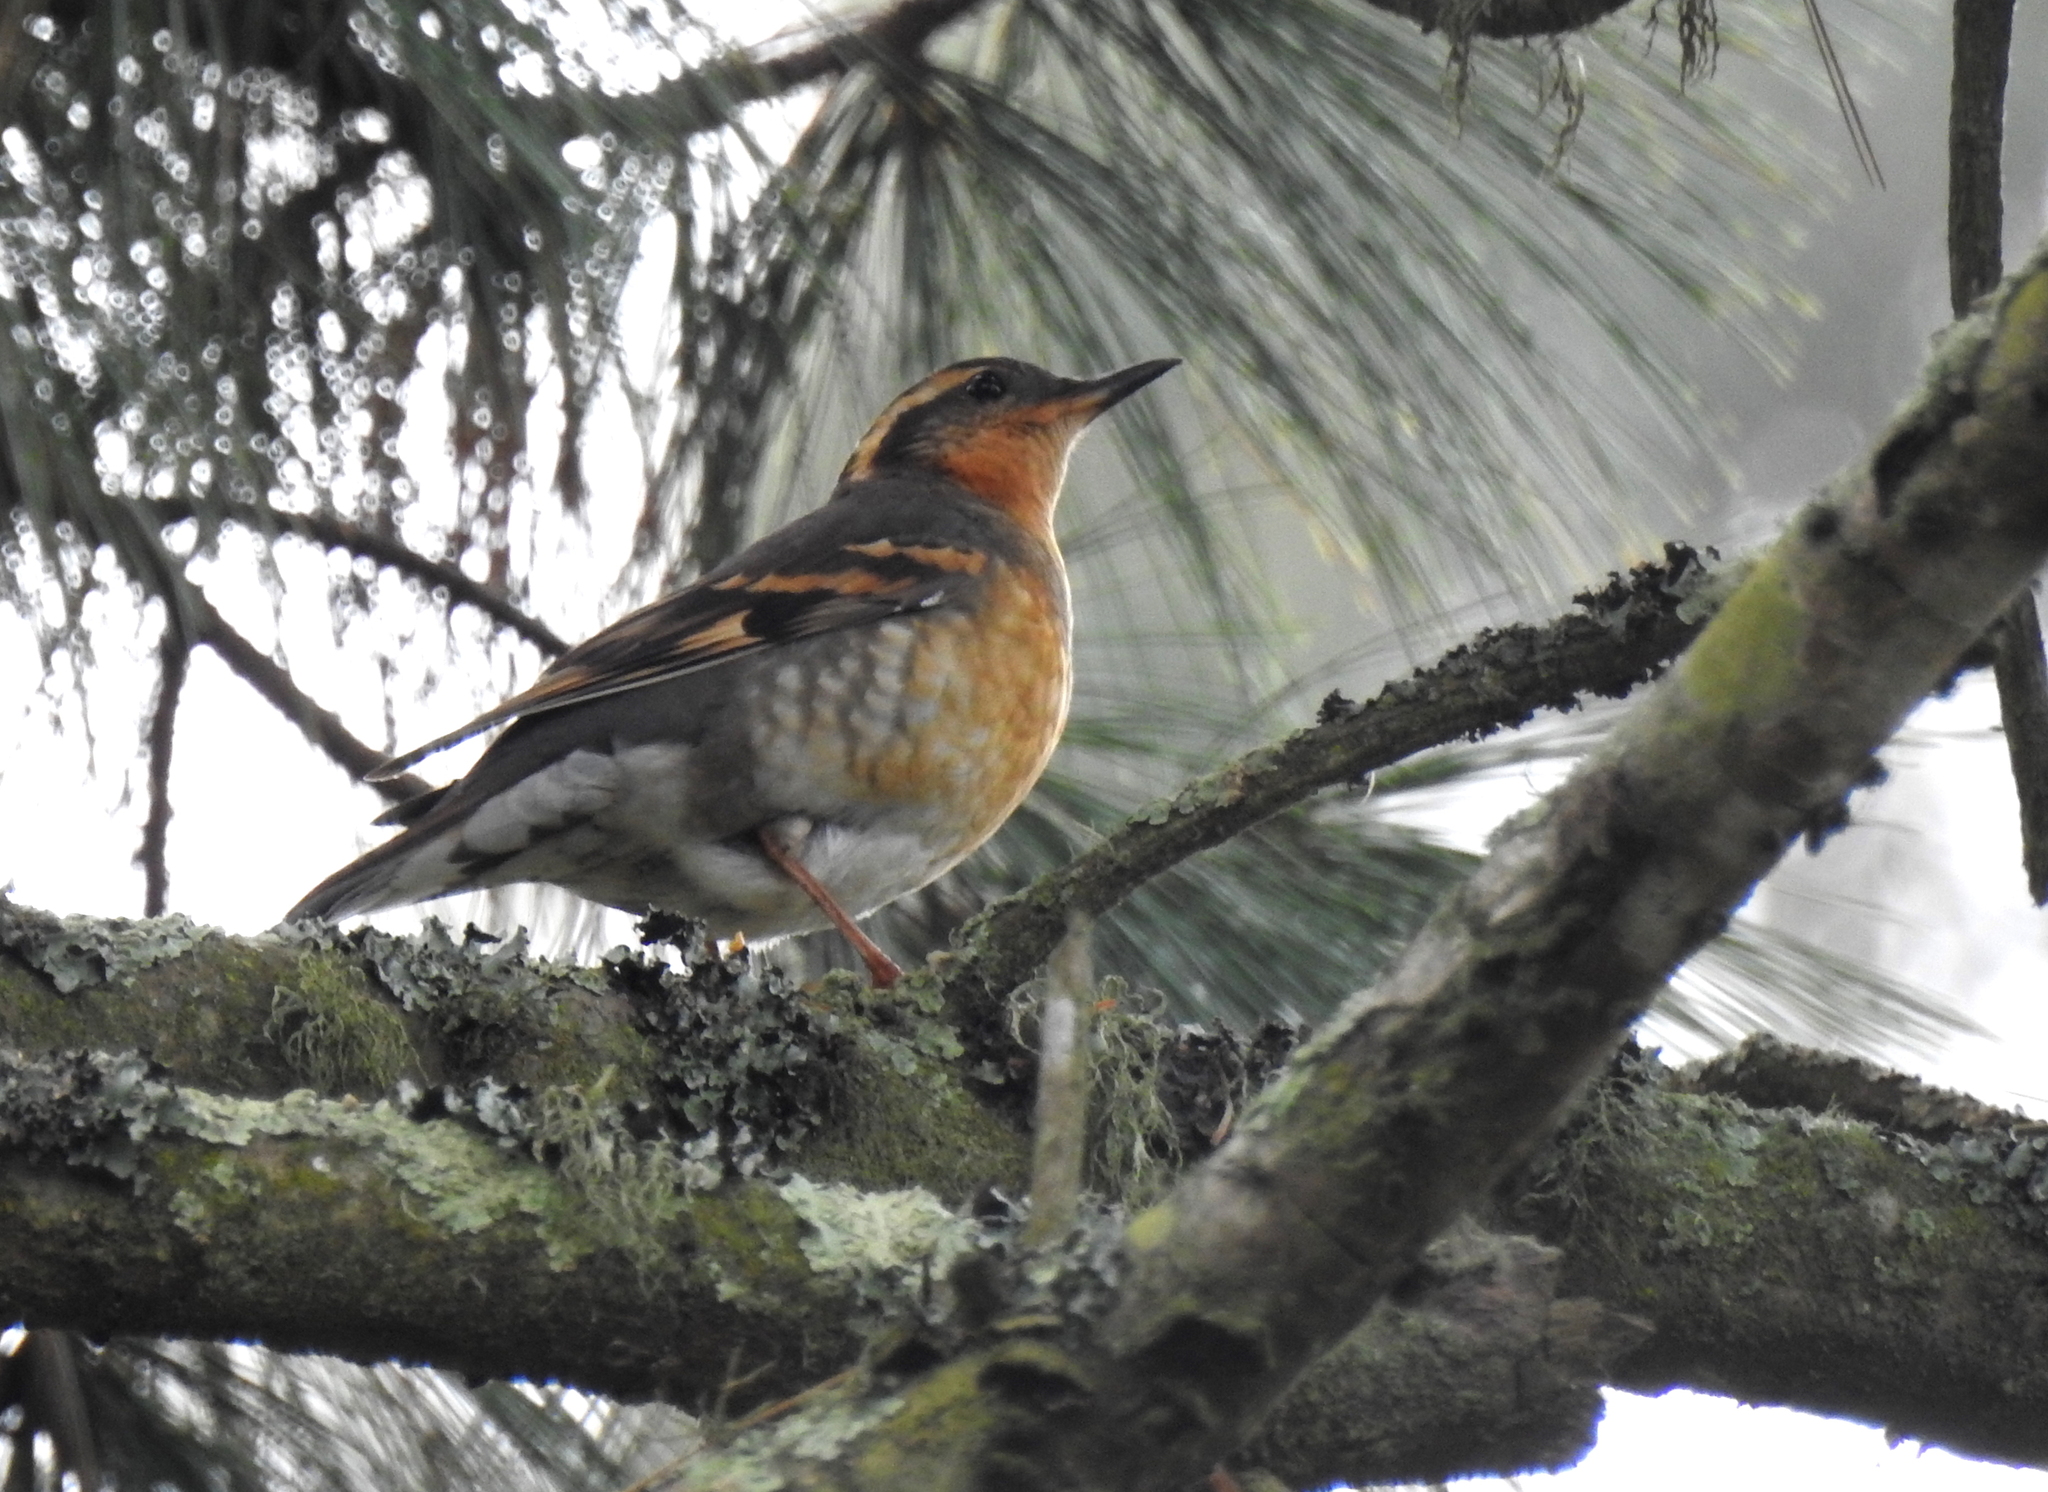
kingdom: Animalia
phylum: Chordata
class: Aves
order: Passeriformes
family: Turdidae
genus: Ixoreus
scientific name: Ixoreus naevius
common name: Varied thrush
